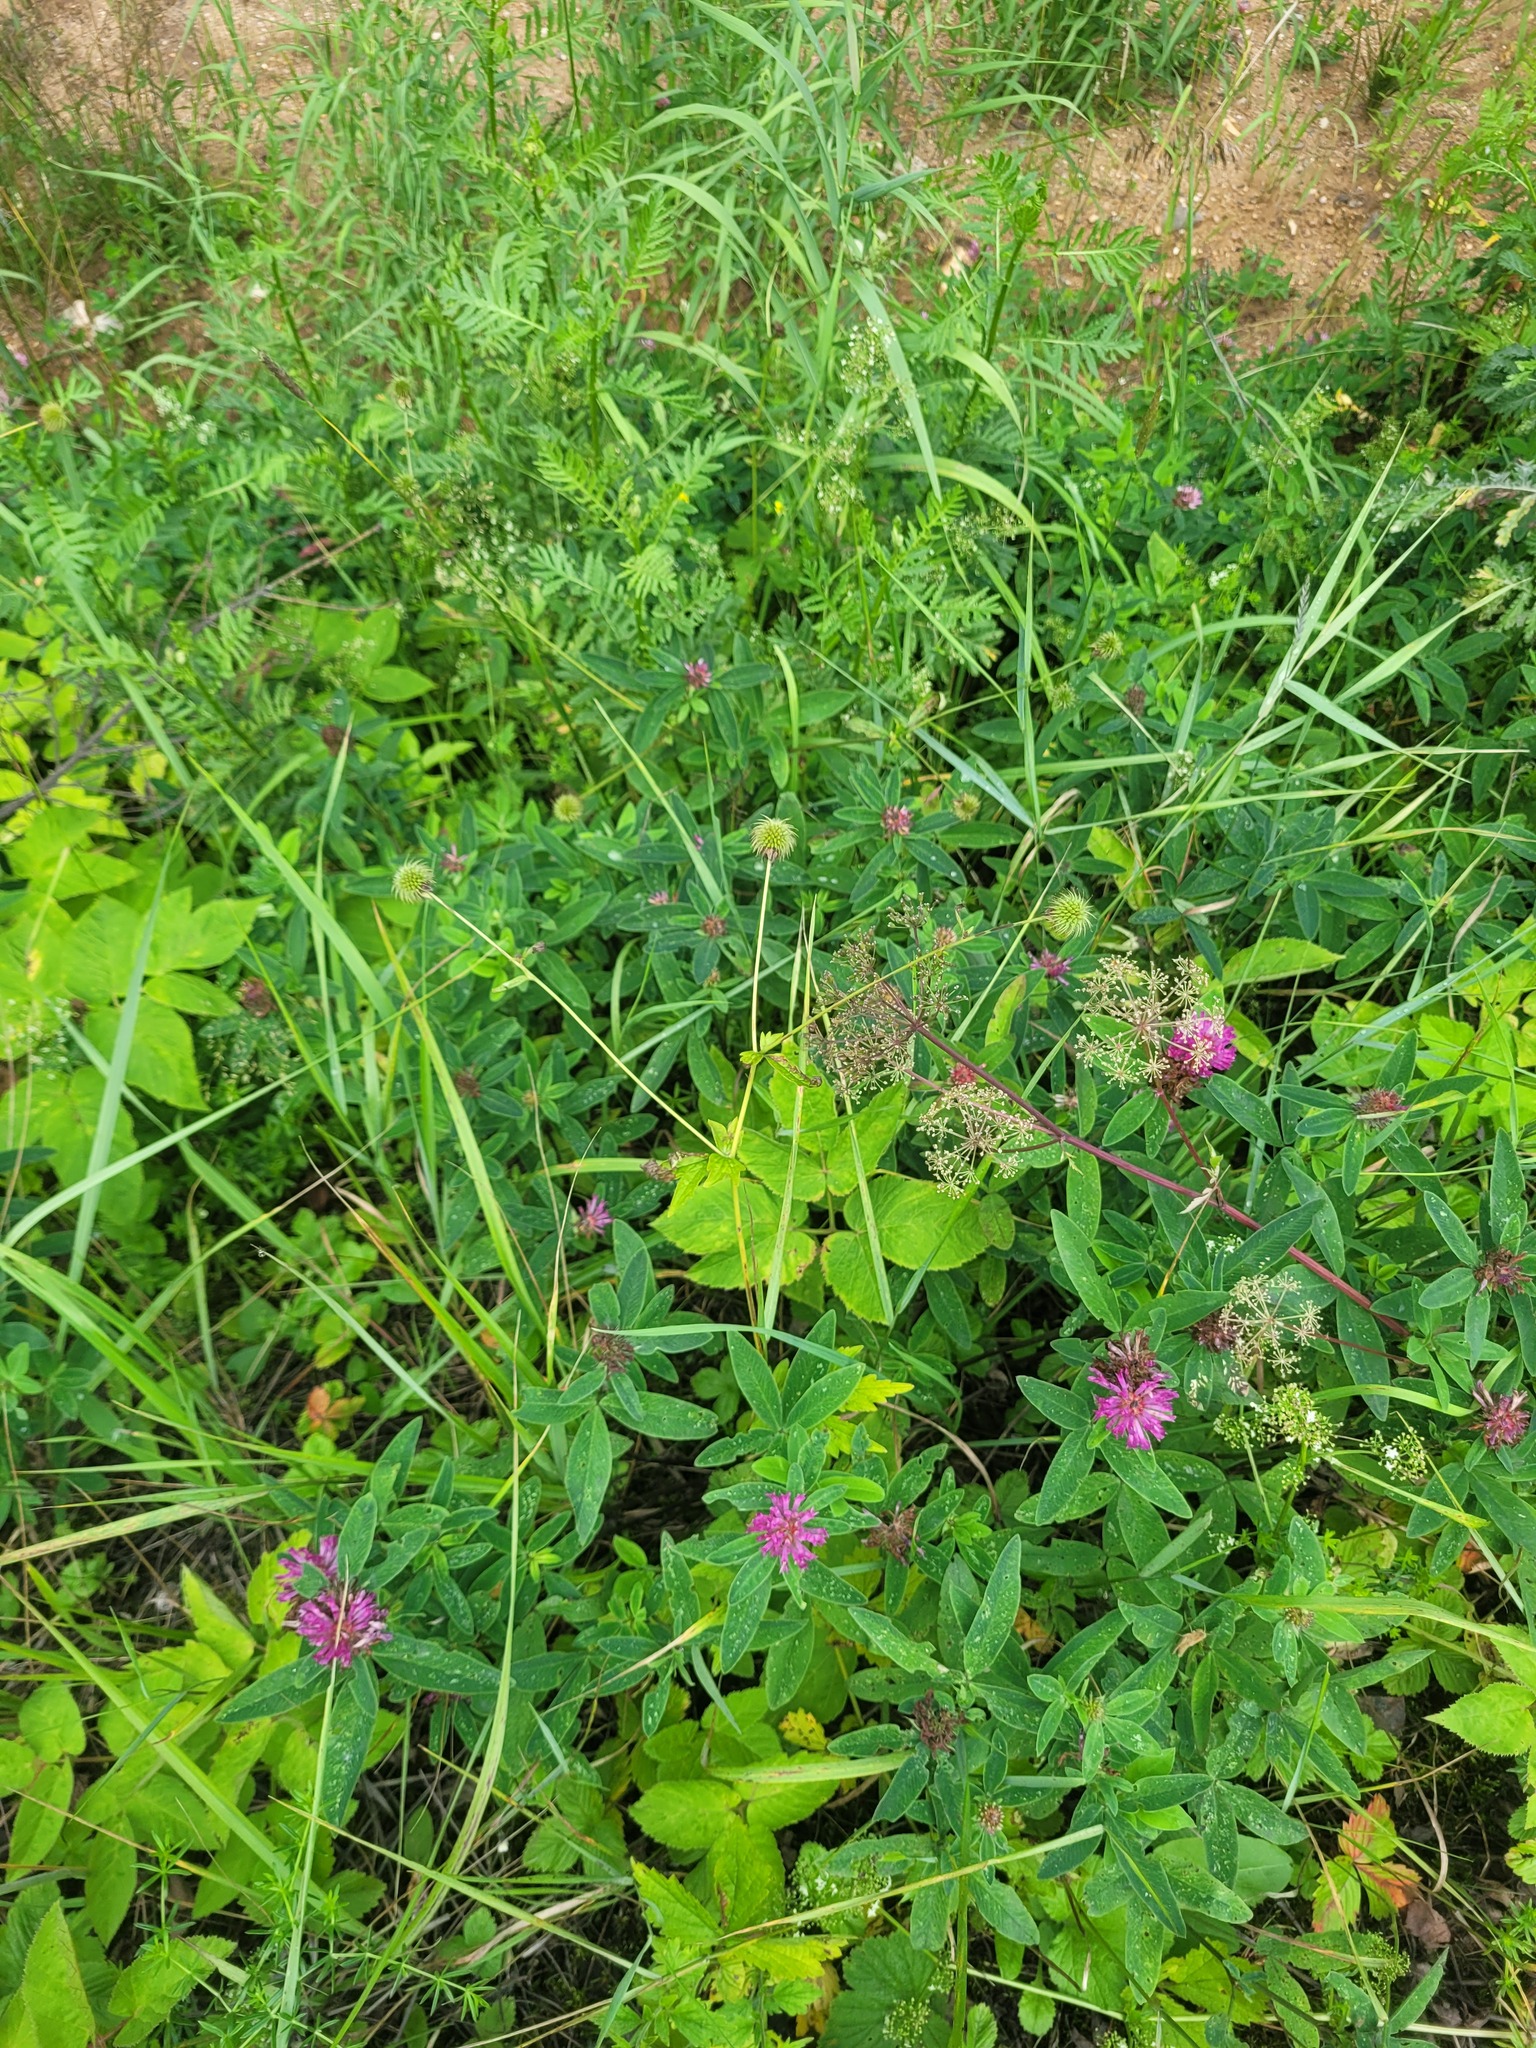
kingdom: Plantae
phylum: Tracheophyta
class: Magnoliopsida
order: Rosales
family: Rosaceae
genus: Geum
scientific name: Geum urbanum
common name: Wood avens
